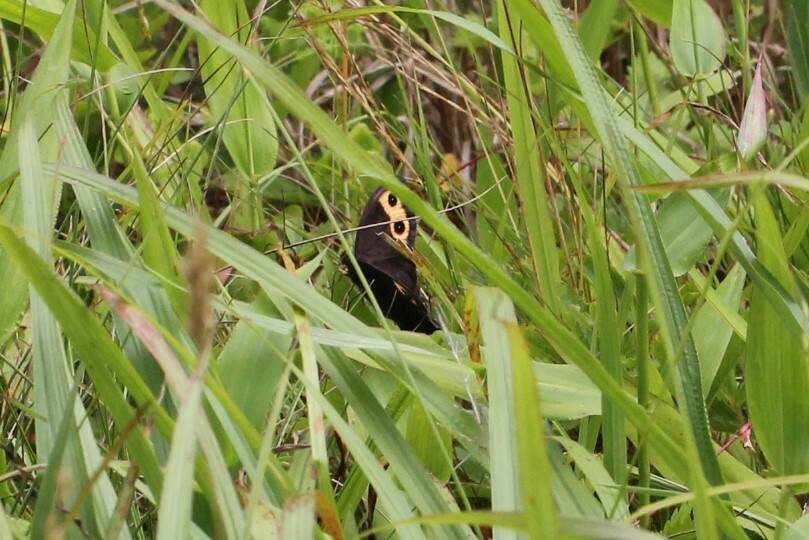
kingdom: Animalia
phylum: Arthropoda
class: Insecta
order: Lepidoptera
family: Nymphalidae
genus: Cercyonis
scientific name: Cercyonis pegala
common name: Common wood-nymph
